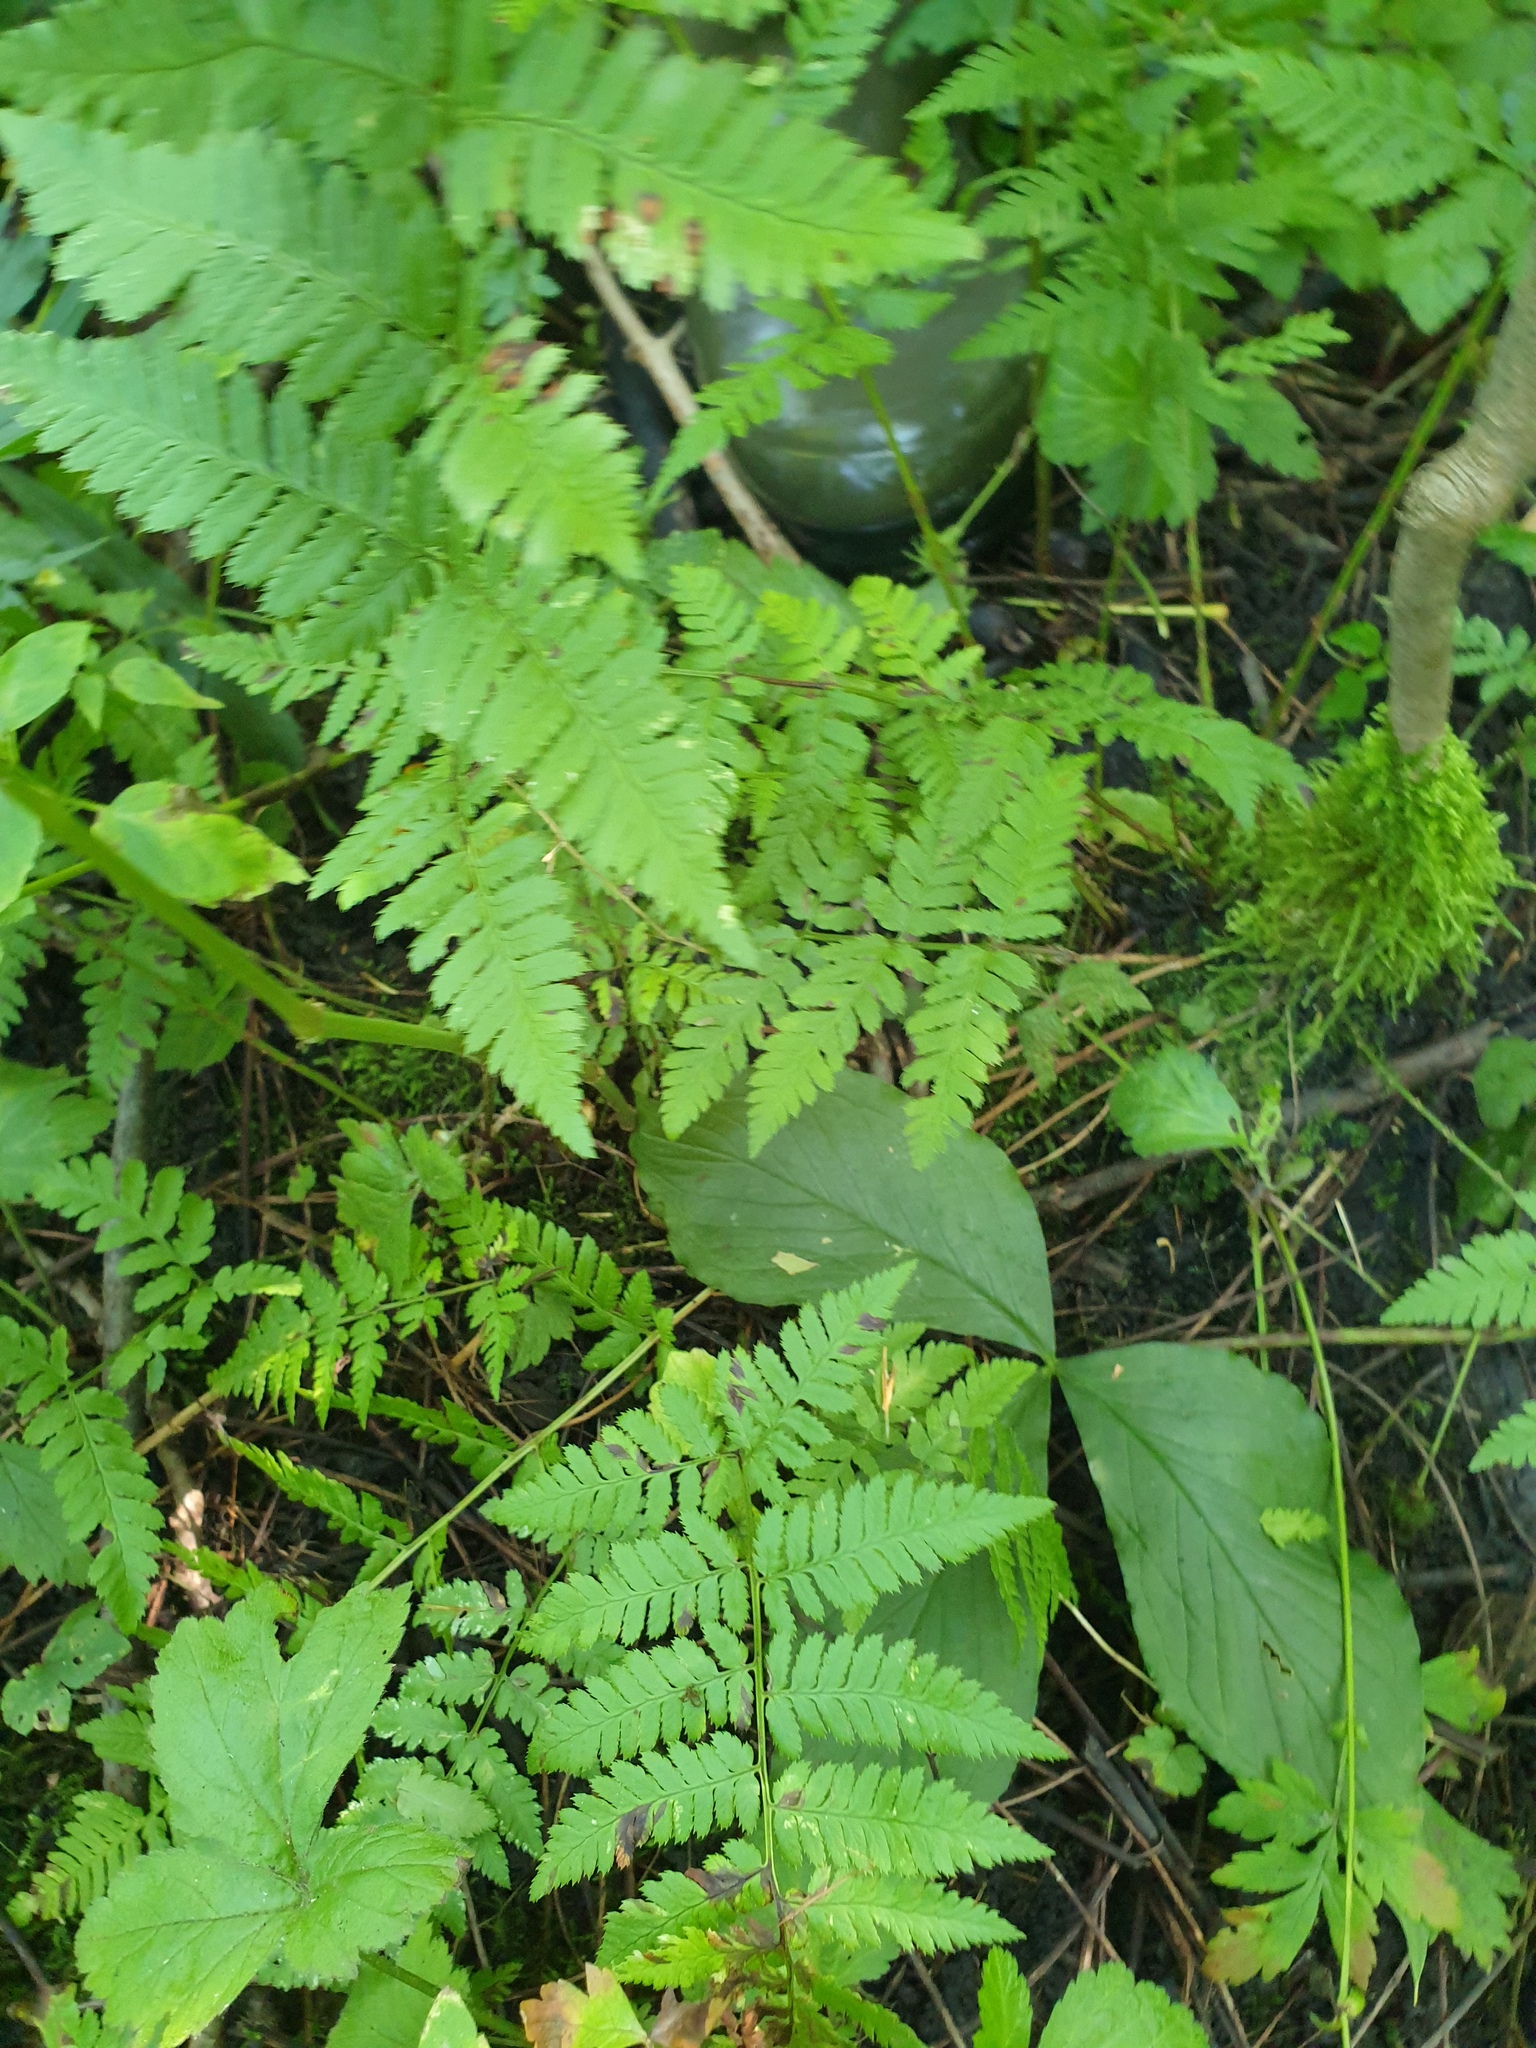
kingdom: Plantae
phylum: Tracheophyta
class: Polypodiopsida
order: Polypodiales
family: Dryopteridaceae
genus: Dryopteris
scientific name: Dryopteris carthusiana
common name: Narrow buckler-fern
